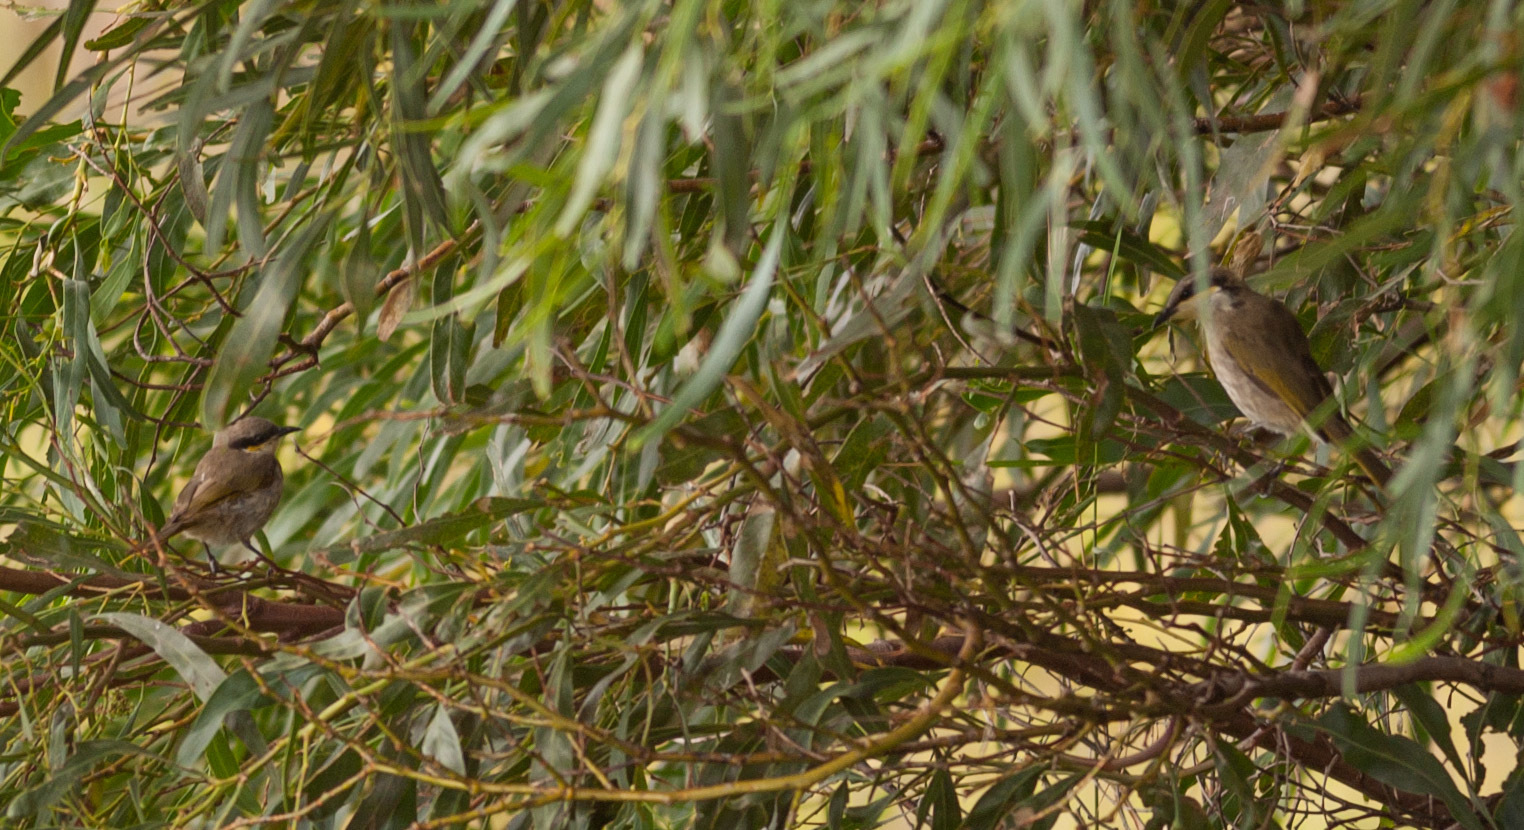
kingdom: Animalia
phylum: Chordata
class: Aves
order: Passeriformes
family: Meliphagidae
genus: Gavicalis
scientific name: Gavicalis virescens
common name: Singing honeyeater
